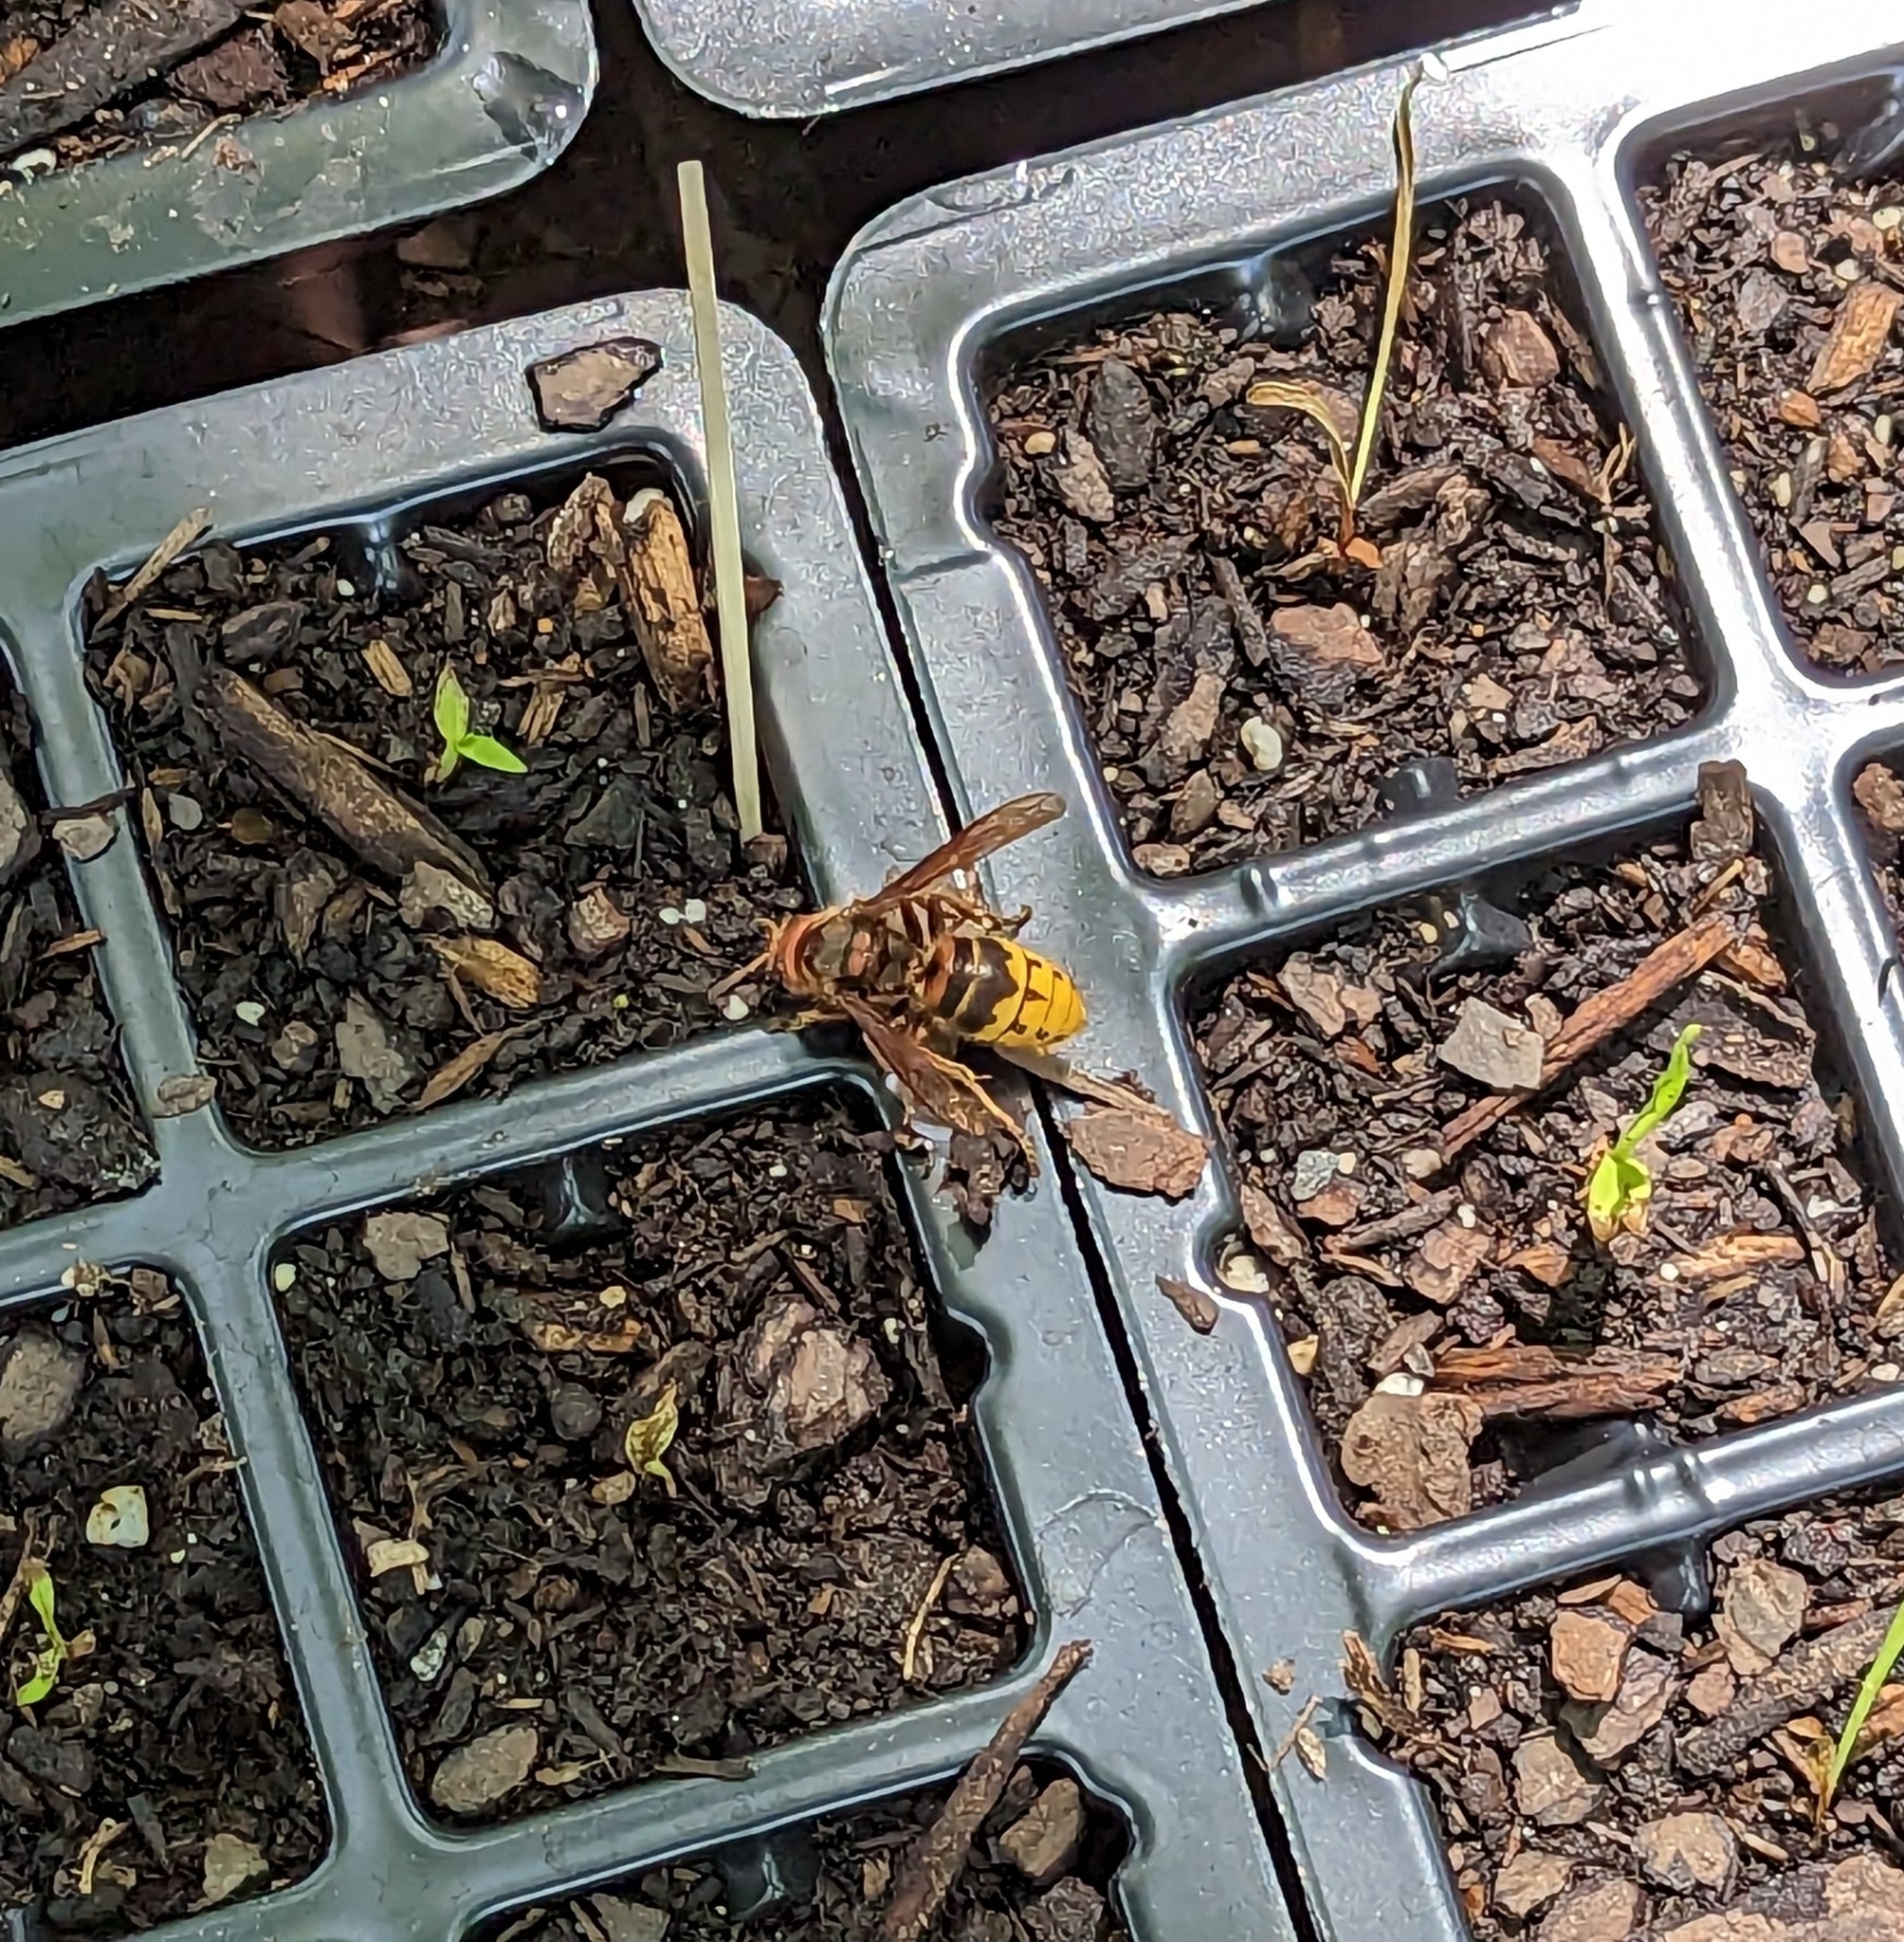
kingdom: Animalia
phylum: Arthropoda
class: Insecta
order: Hymenoptera
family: Vespidae
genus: Vespa
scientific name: Vespa crabro
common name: Hornet
